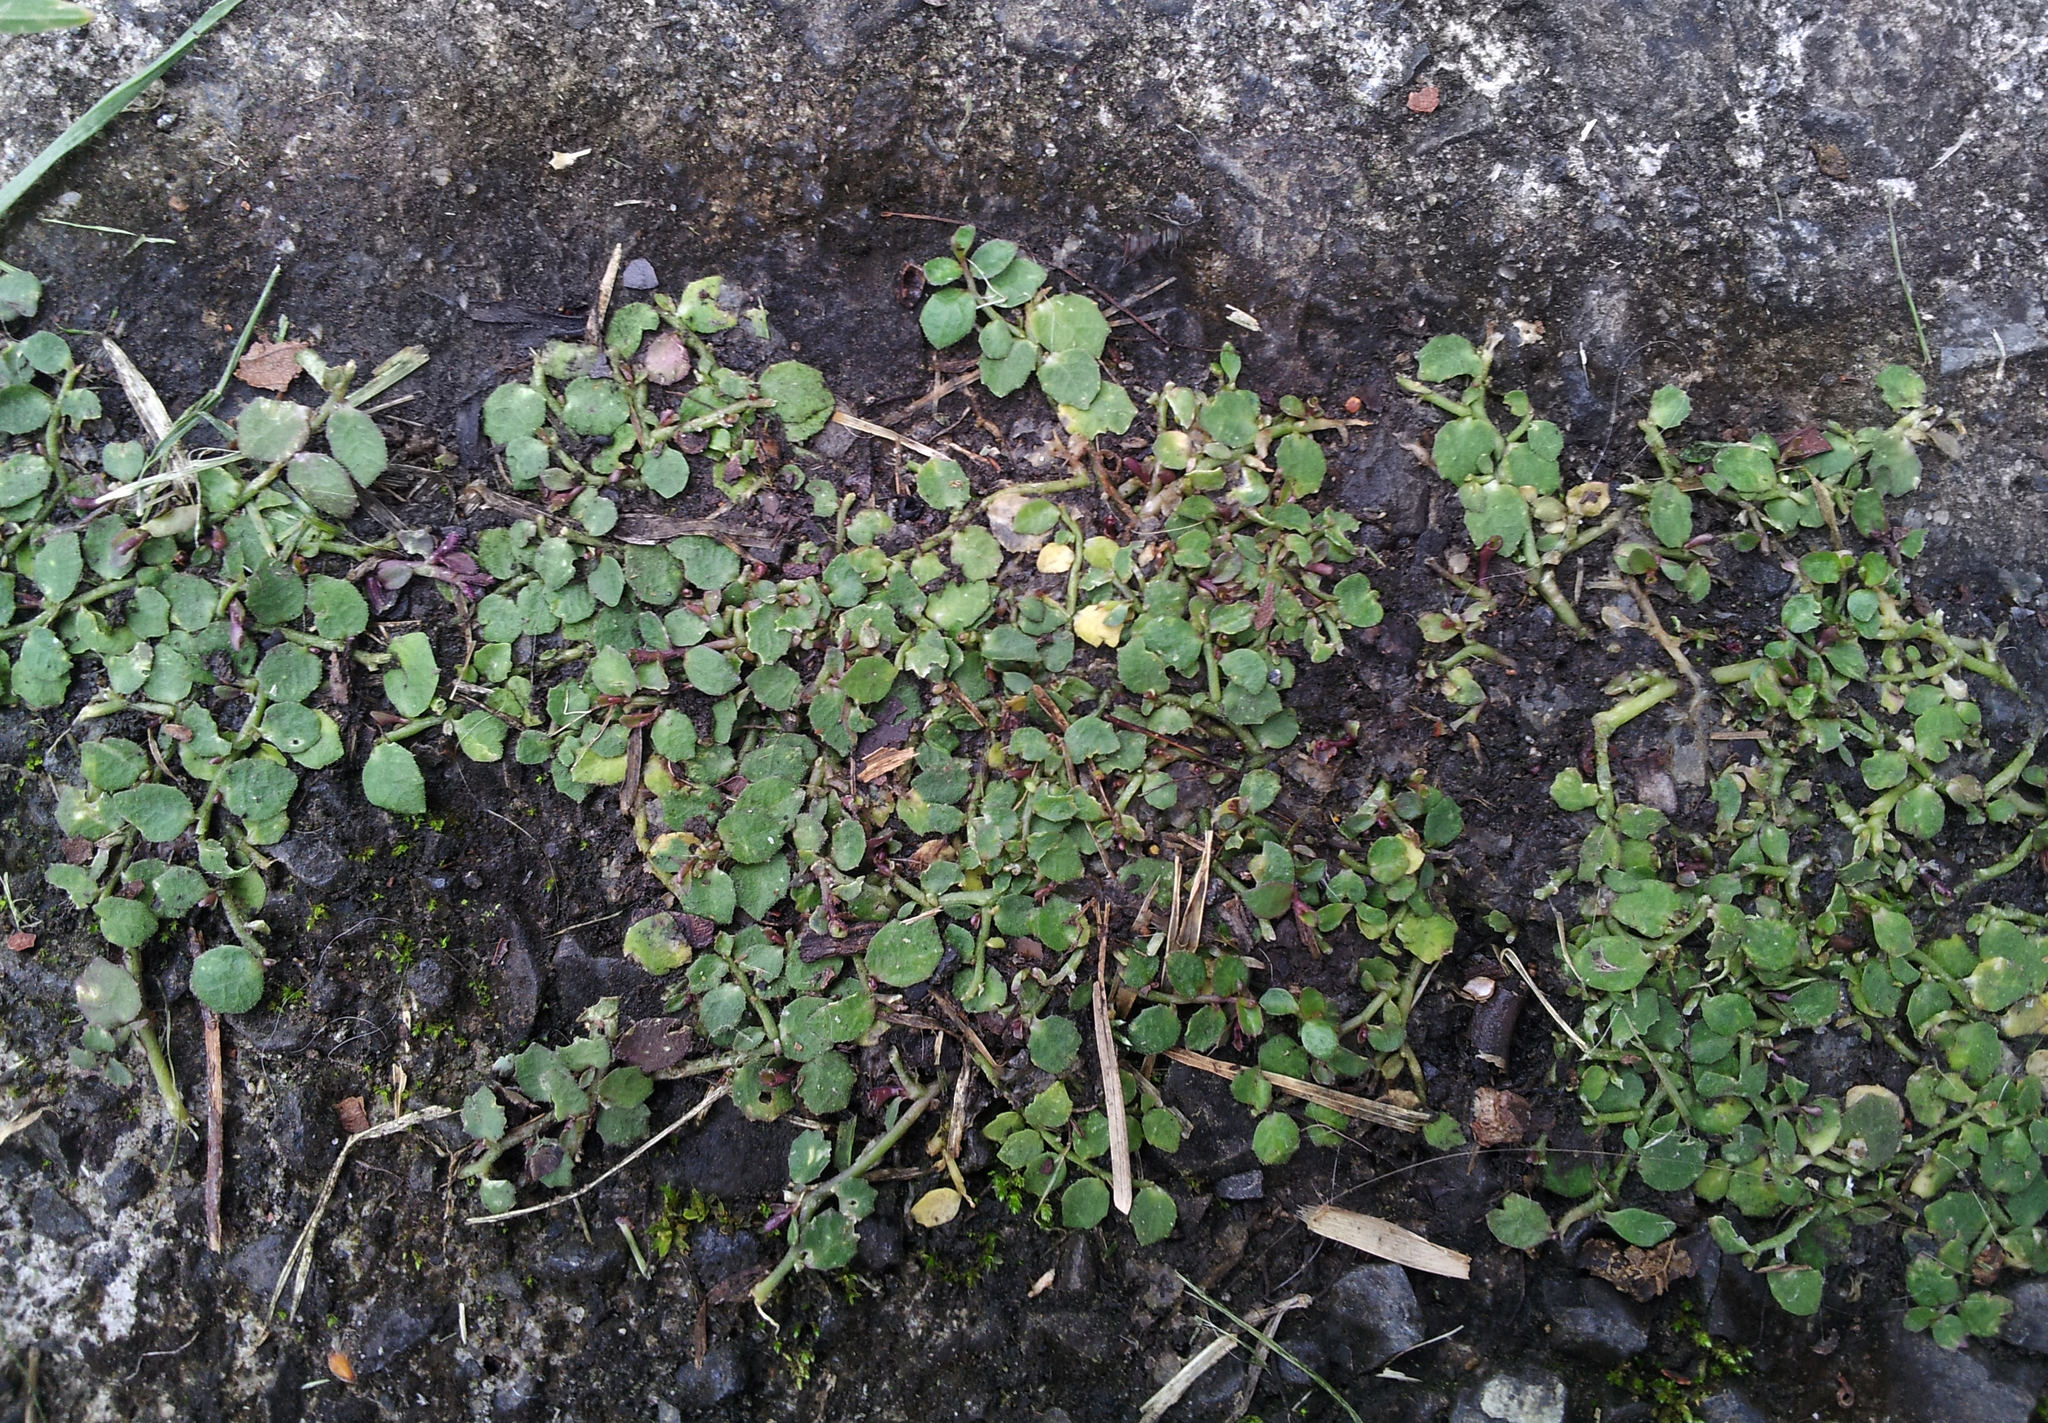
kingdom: Plantae
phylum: Tracheophyta
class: Magnoliopsida
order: Asterales
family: Campanulaceae
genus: Lobelia
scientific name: Lobelia pedunculata
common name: Matted pratia
